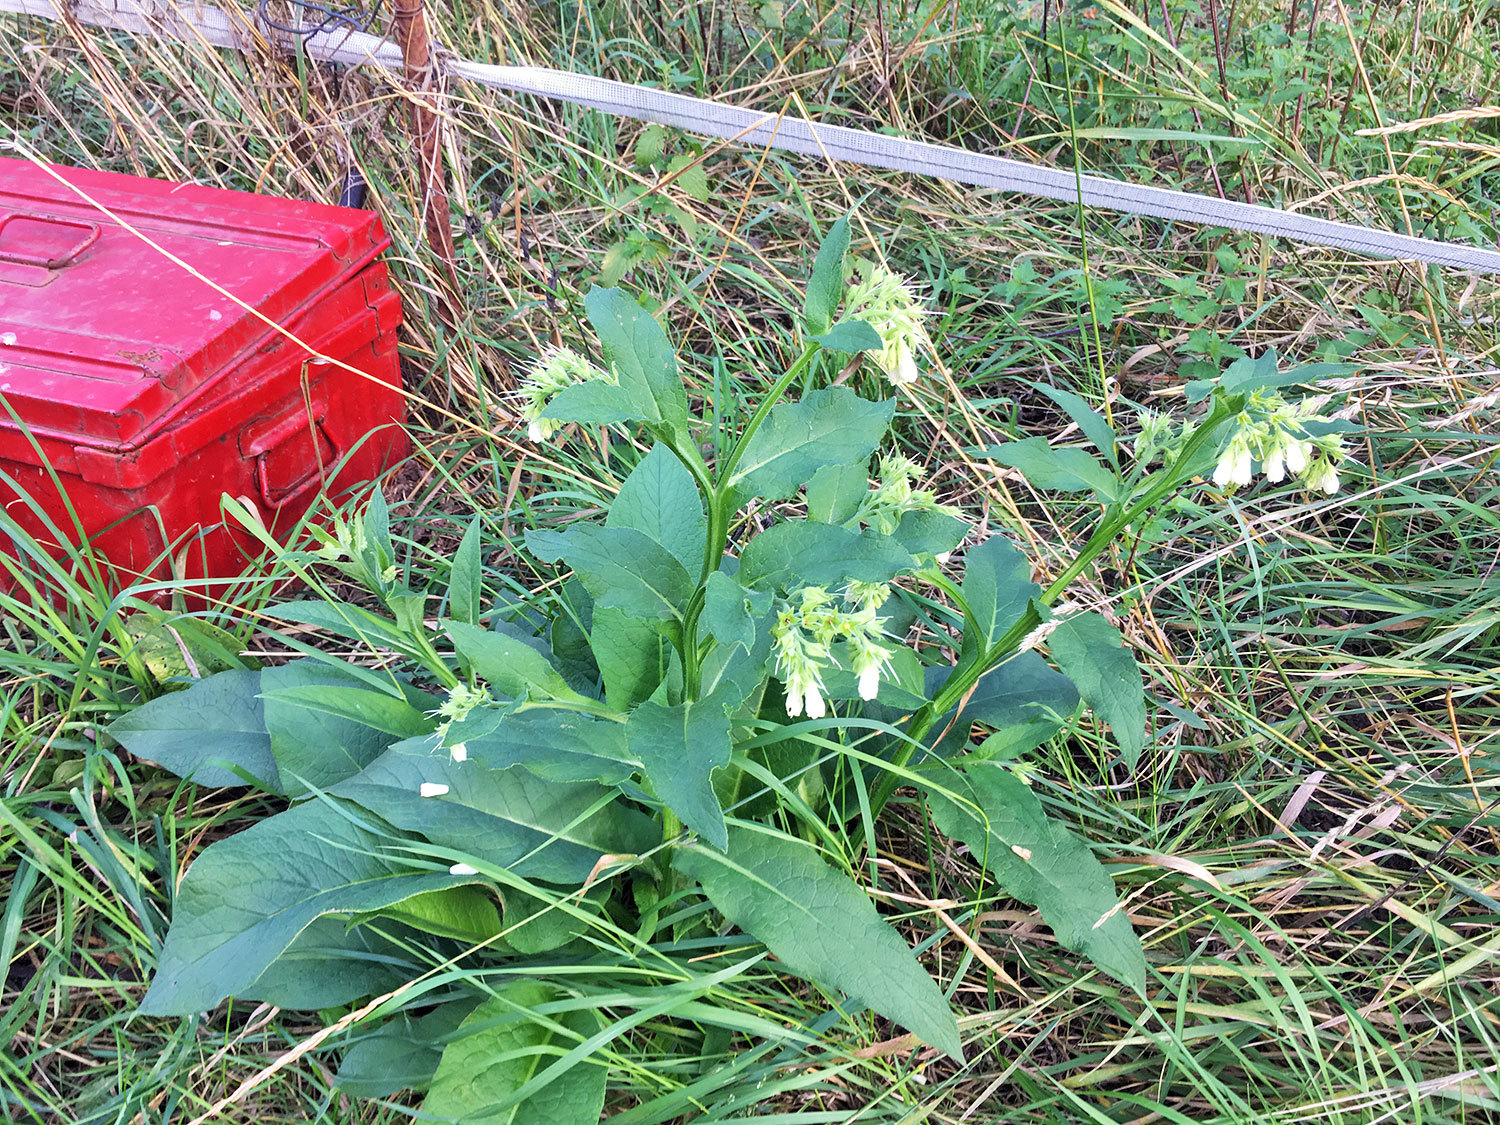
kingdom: Plantae
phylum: Tracheophyta
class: Magnoliopsida
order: Boraginales
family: Boraginaceae
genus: Symphytum
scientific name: Symphytum bohemicum
